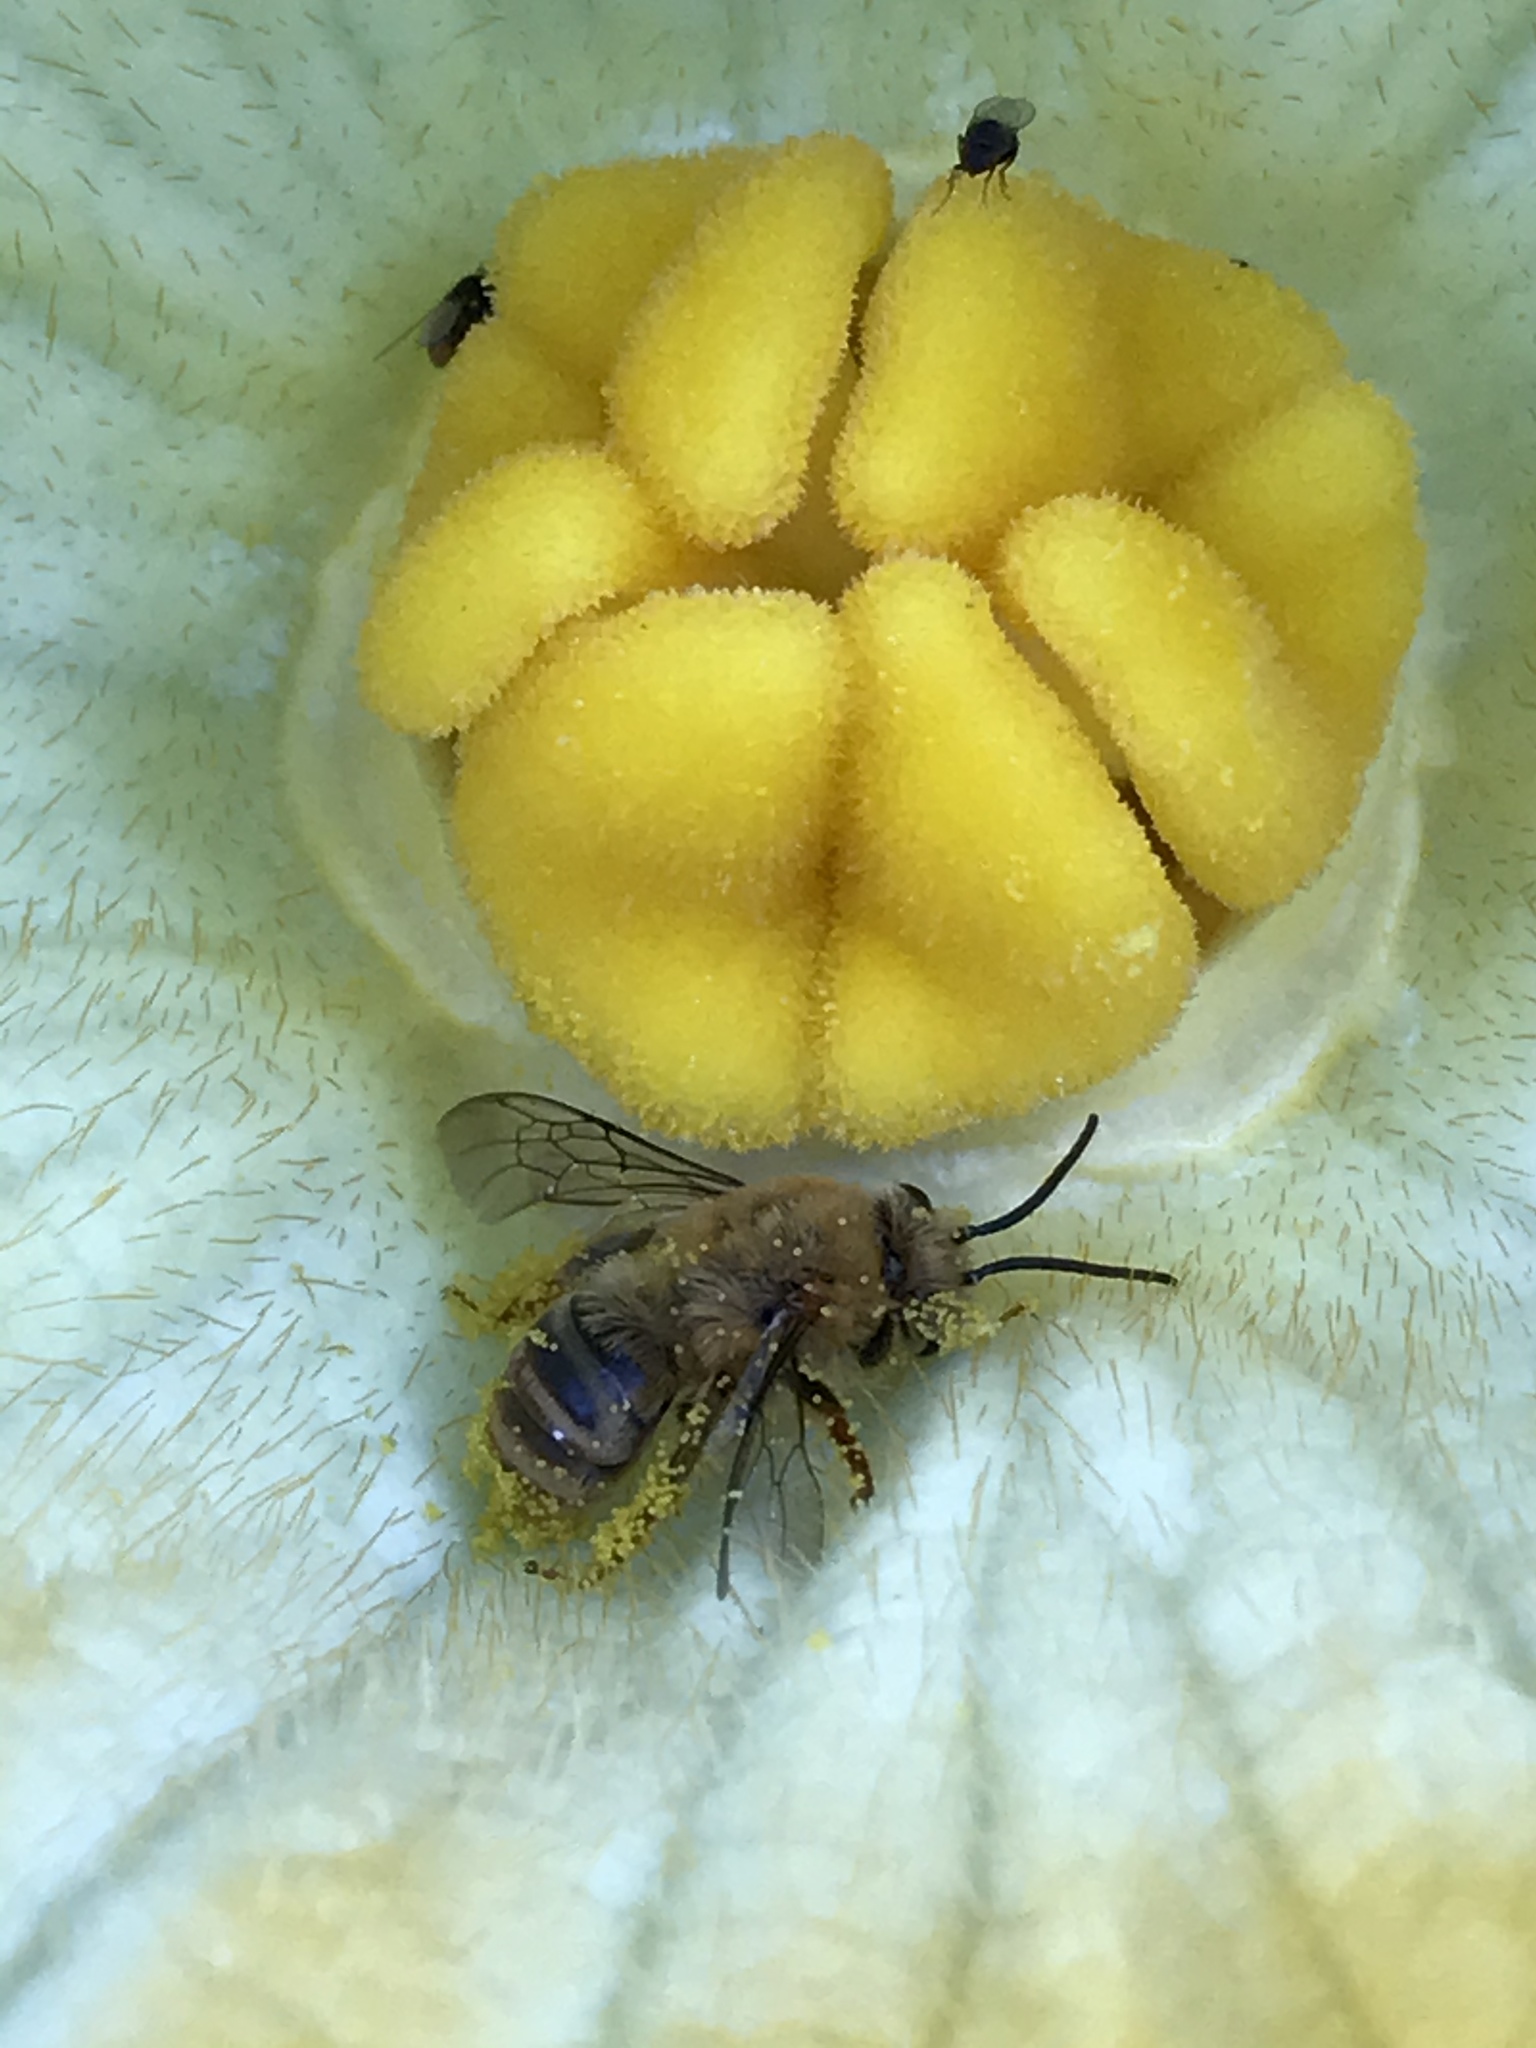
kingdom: Animalia
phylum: Arthropoda
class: Insecta
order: Hymenoptera
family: Apidae
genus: Peponapis
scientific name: Peponapis pruinosa
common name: Pruinose squash bee
